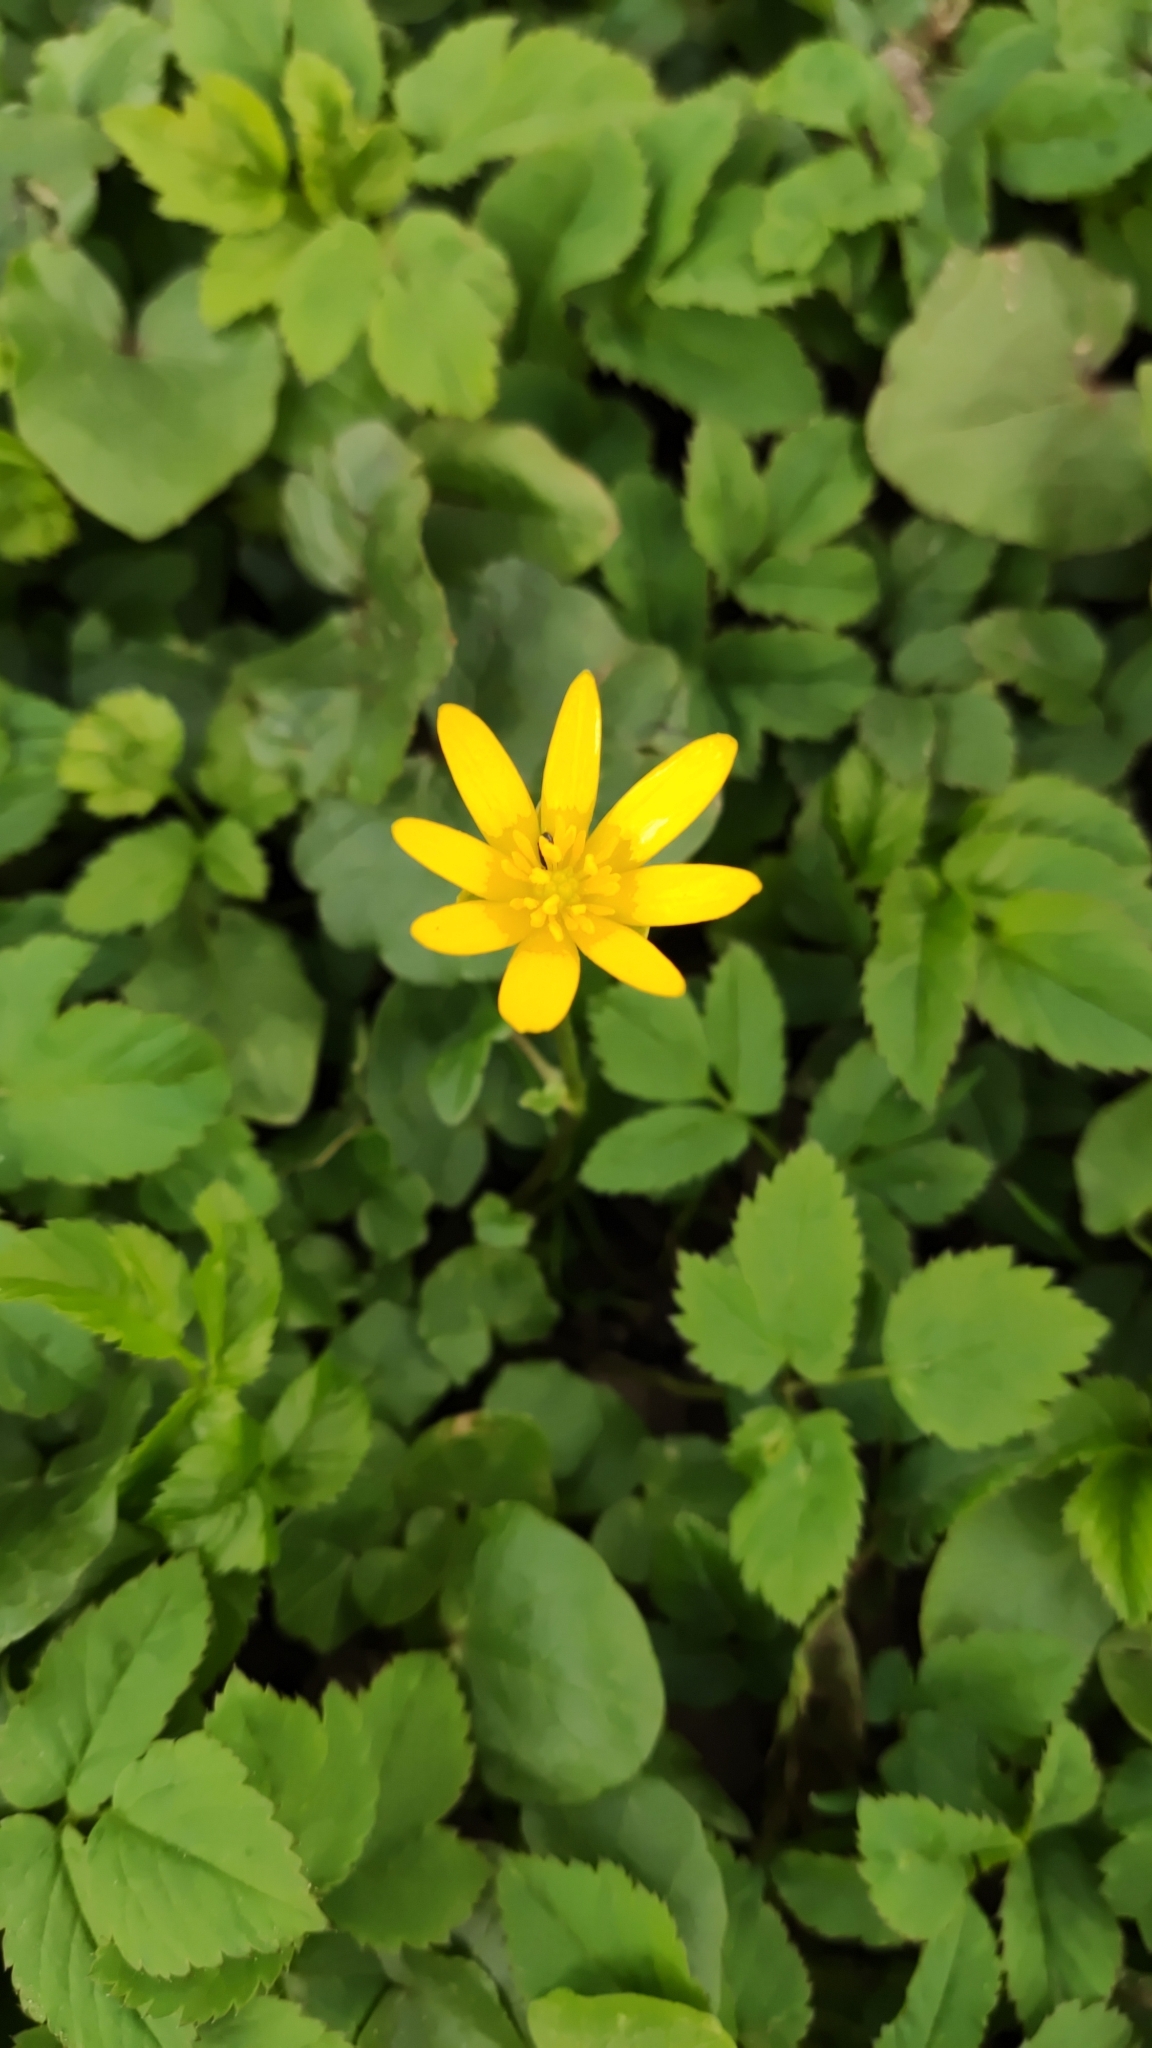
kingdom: Plantae
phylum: Tracheophyta
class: Magnoliopsida
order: Ranunculales
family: Ranunculaceae
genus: Ficaria
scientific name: Ficaria verna
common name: Lesser celandine
